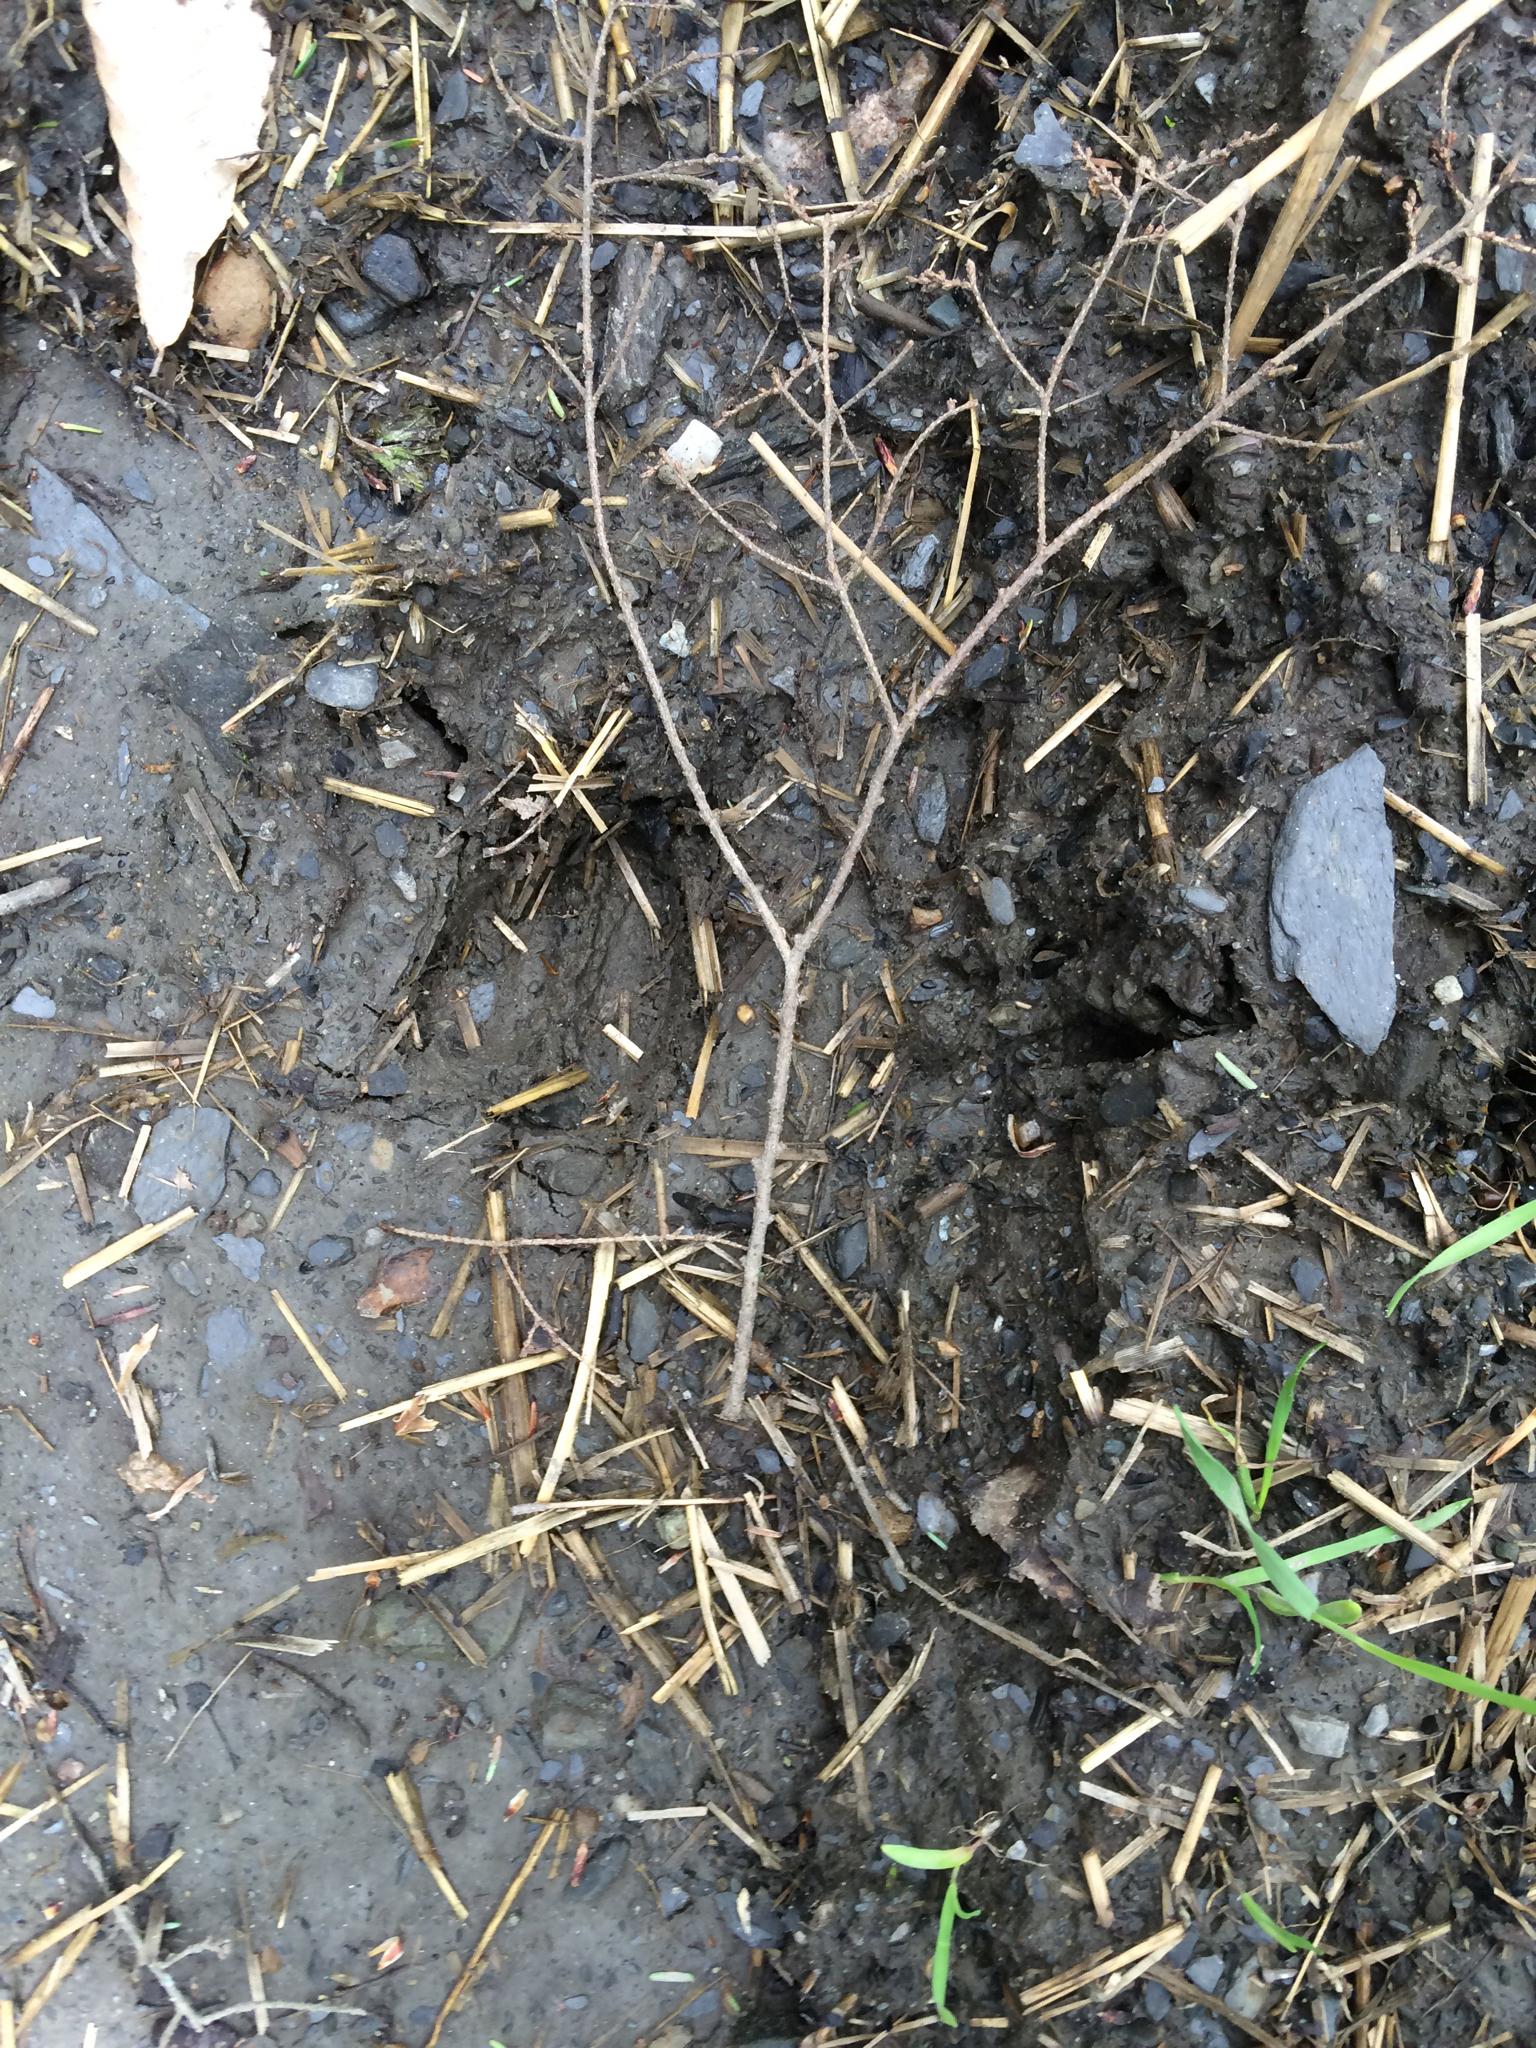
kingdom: Animalia
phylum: Chordata
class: Mammalia
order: Artiodactyla
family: Cervidae
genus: Odocoileus
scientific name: Odocoileus virginianus
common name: White-tailed deer
